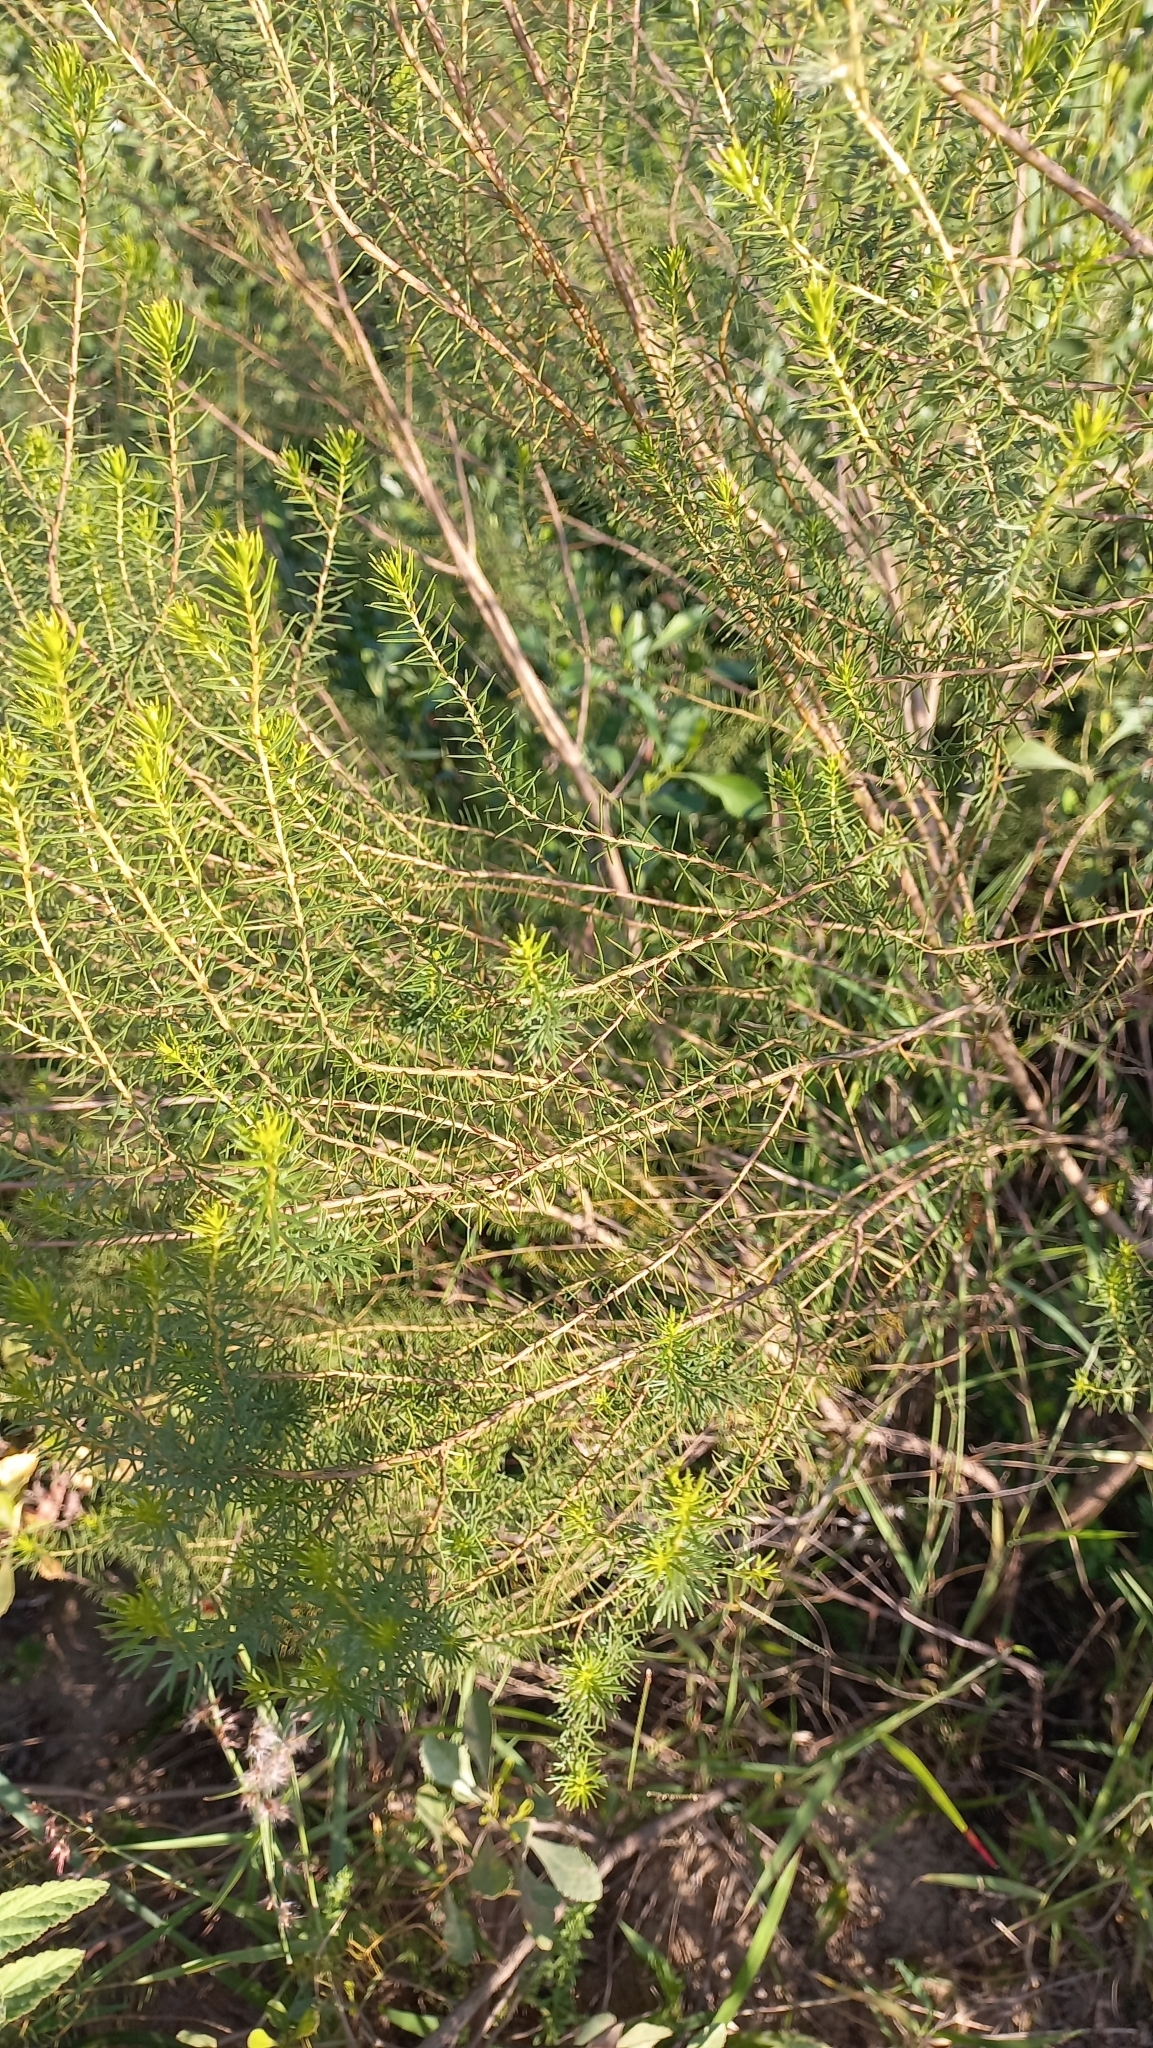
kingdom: Plantae
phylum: Tracheophyta
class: Magnoliopsida
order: Asterales
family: Asteraceae
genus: Baccharis
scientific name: Baccharis aliena
